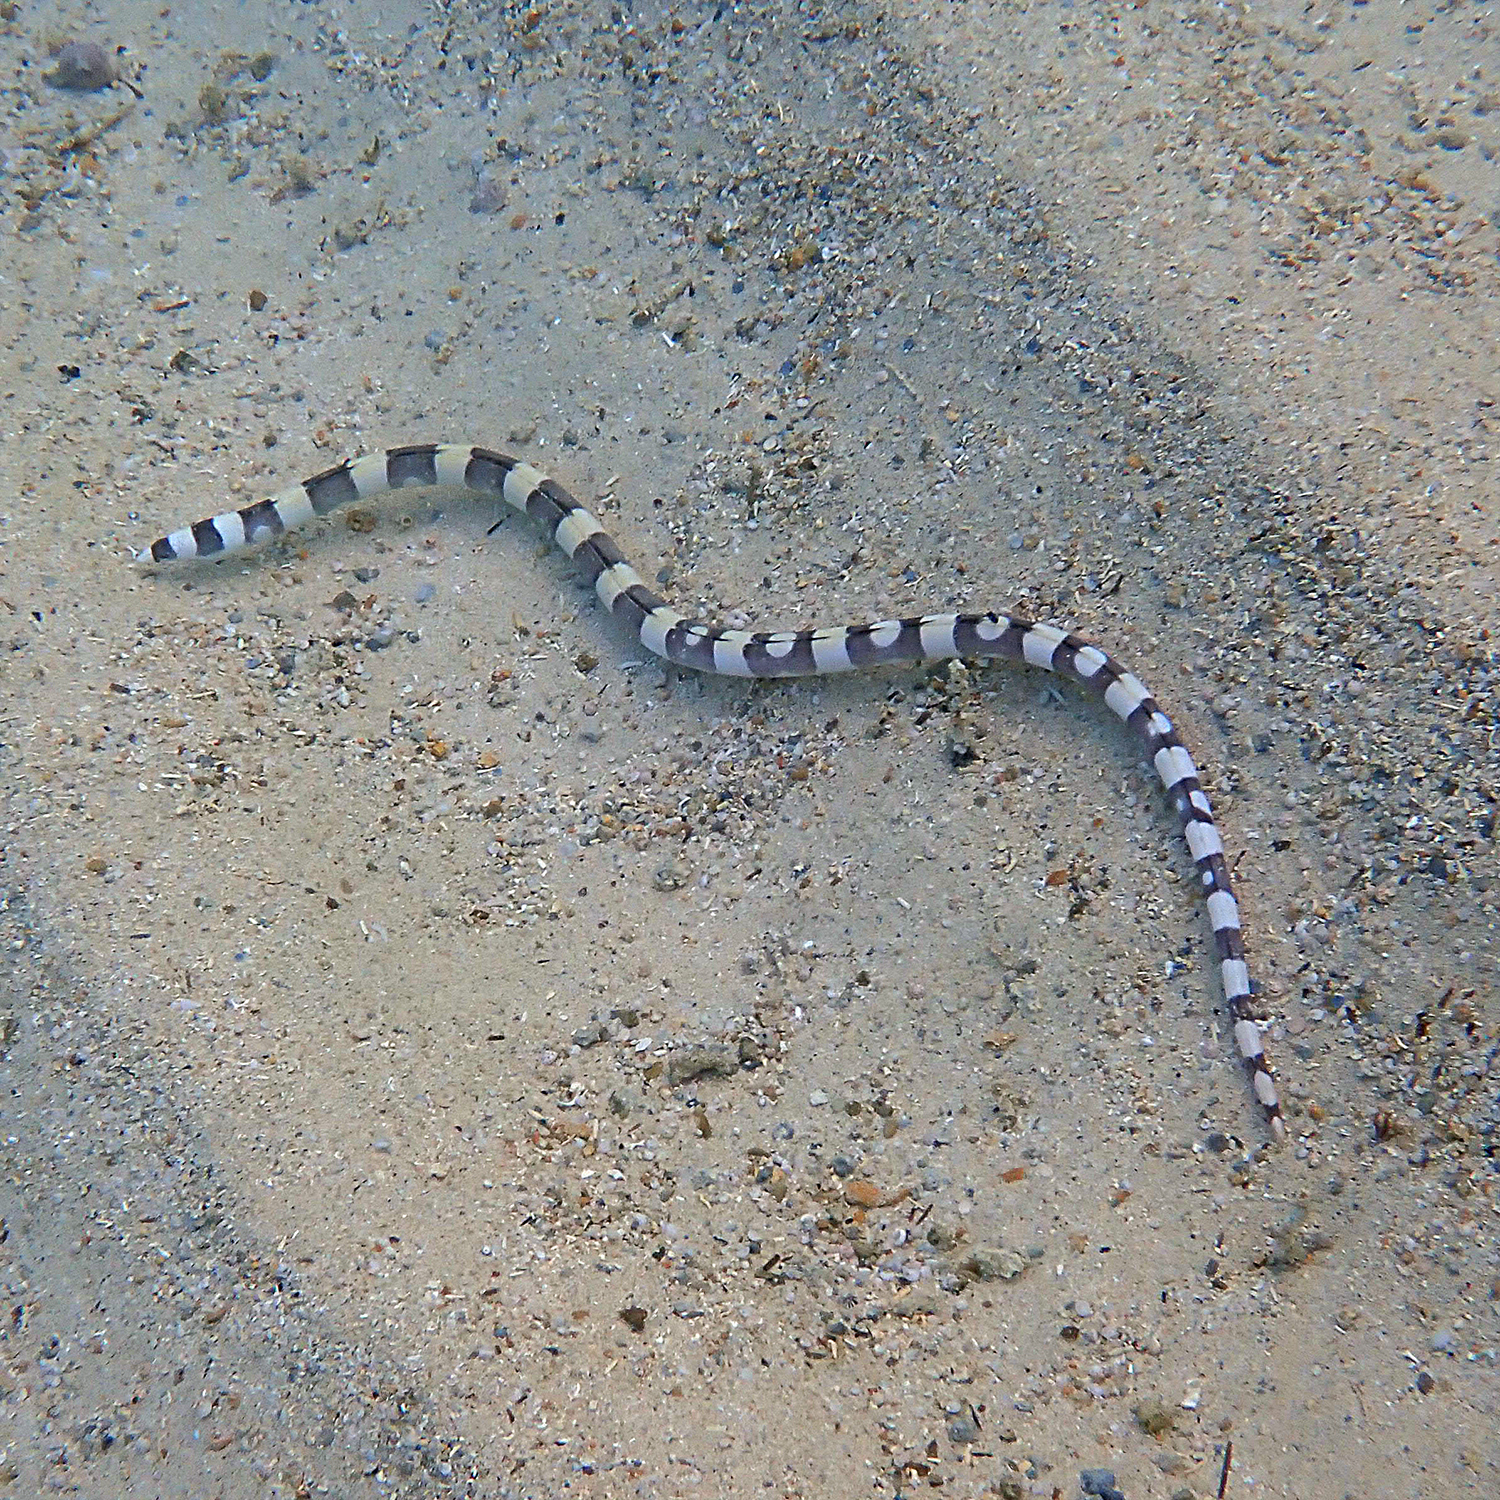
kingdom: Animalia
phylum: Chordata
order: Anguilliformes
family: Ophichthidae
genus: Leiuranus
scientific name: Leiuranus versicolor
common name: Convict snake eel
